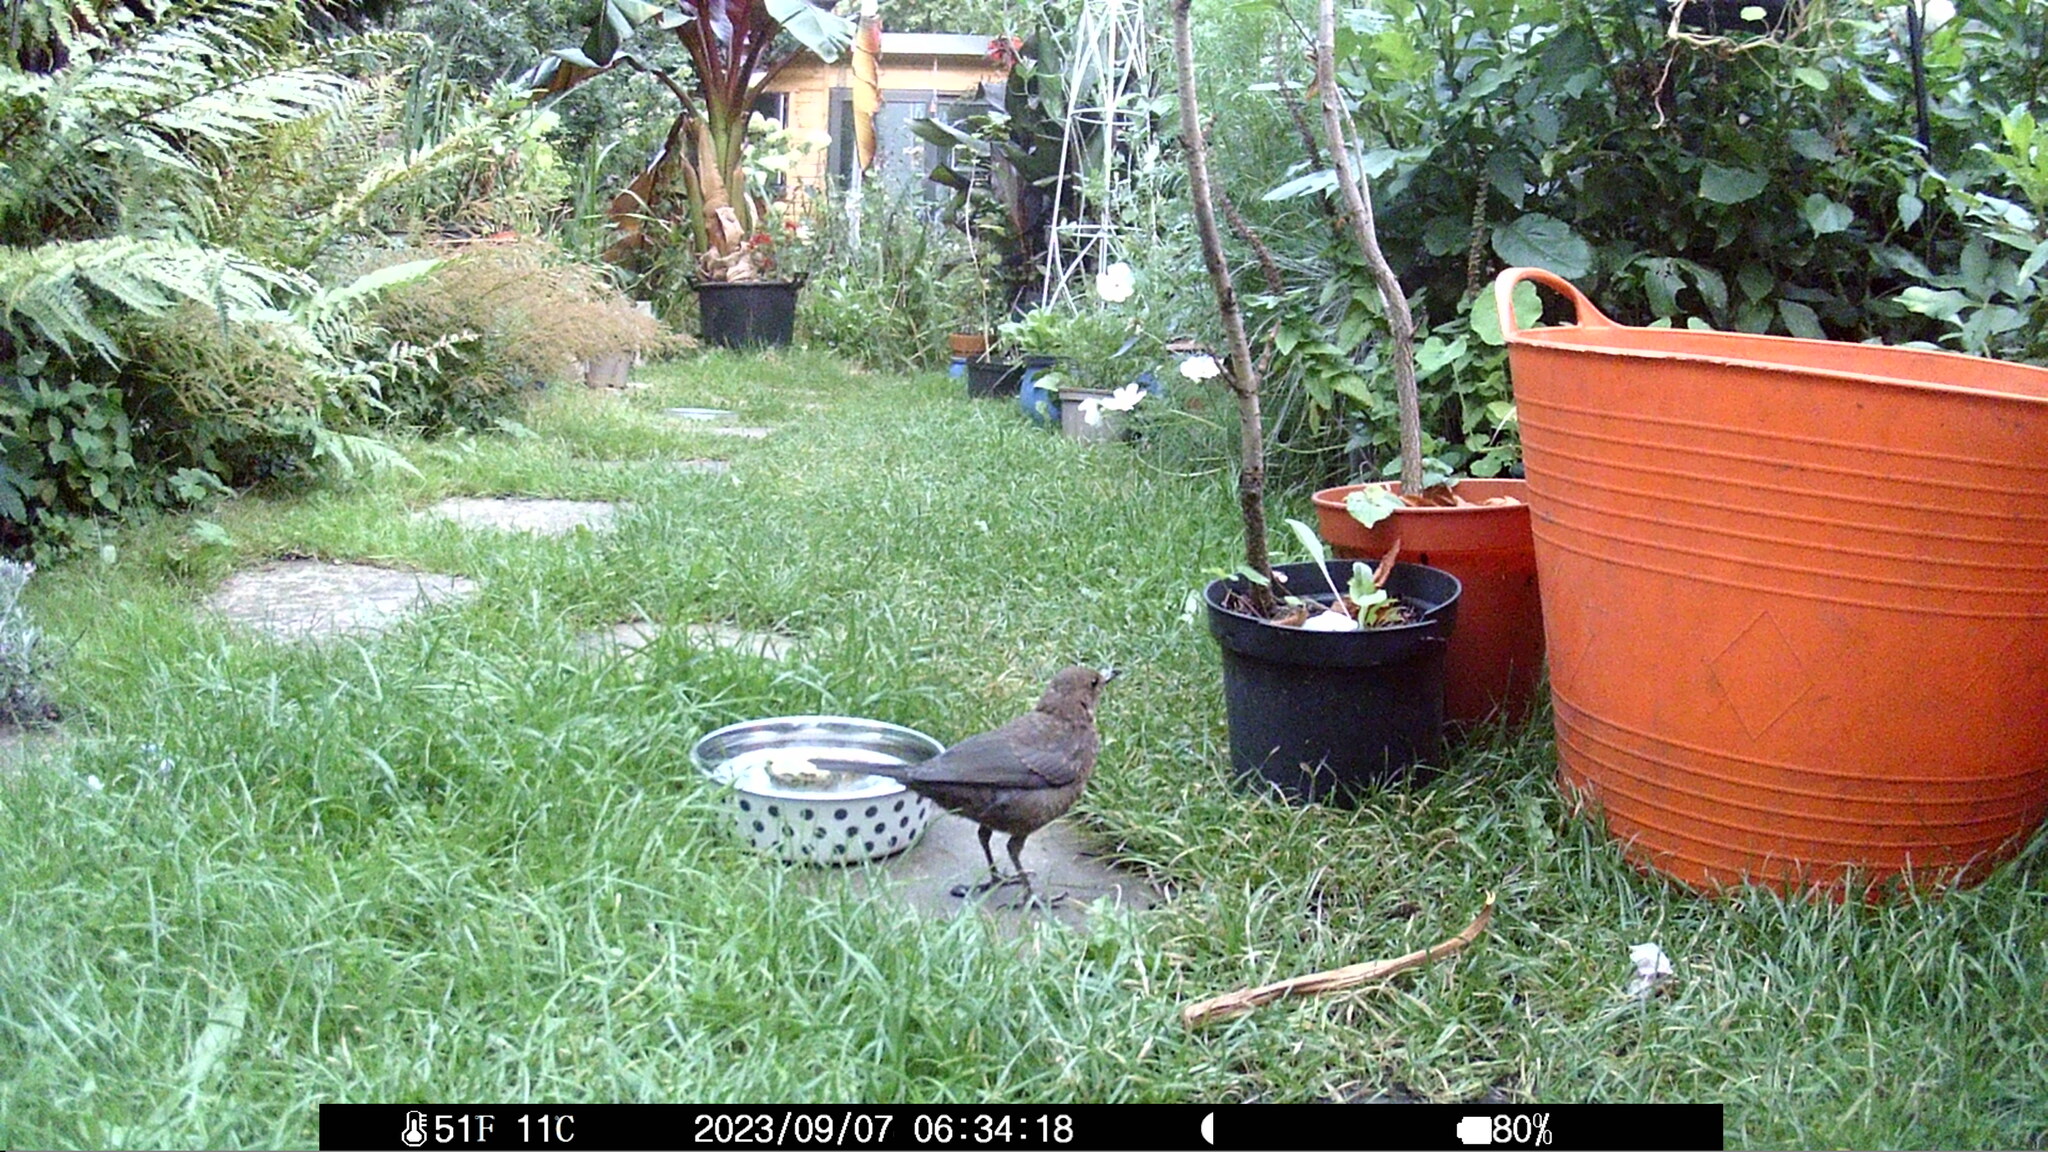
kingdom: Animalia
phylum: Chordata
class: Aves
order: Passeriformes
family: Turdidae
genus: Turdus
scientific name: Turdus merula
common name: Common blackbird
